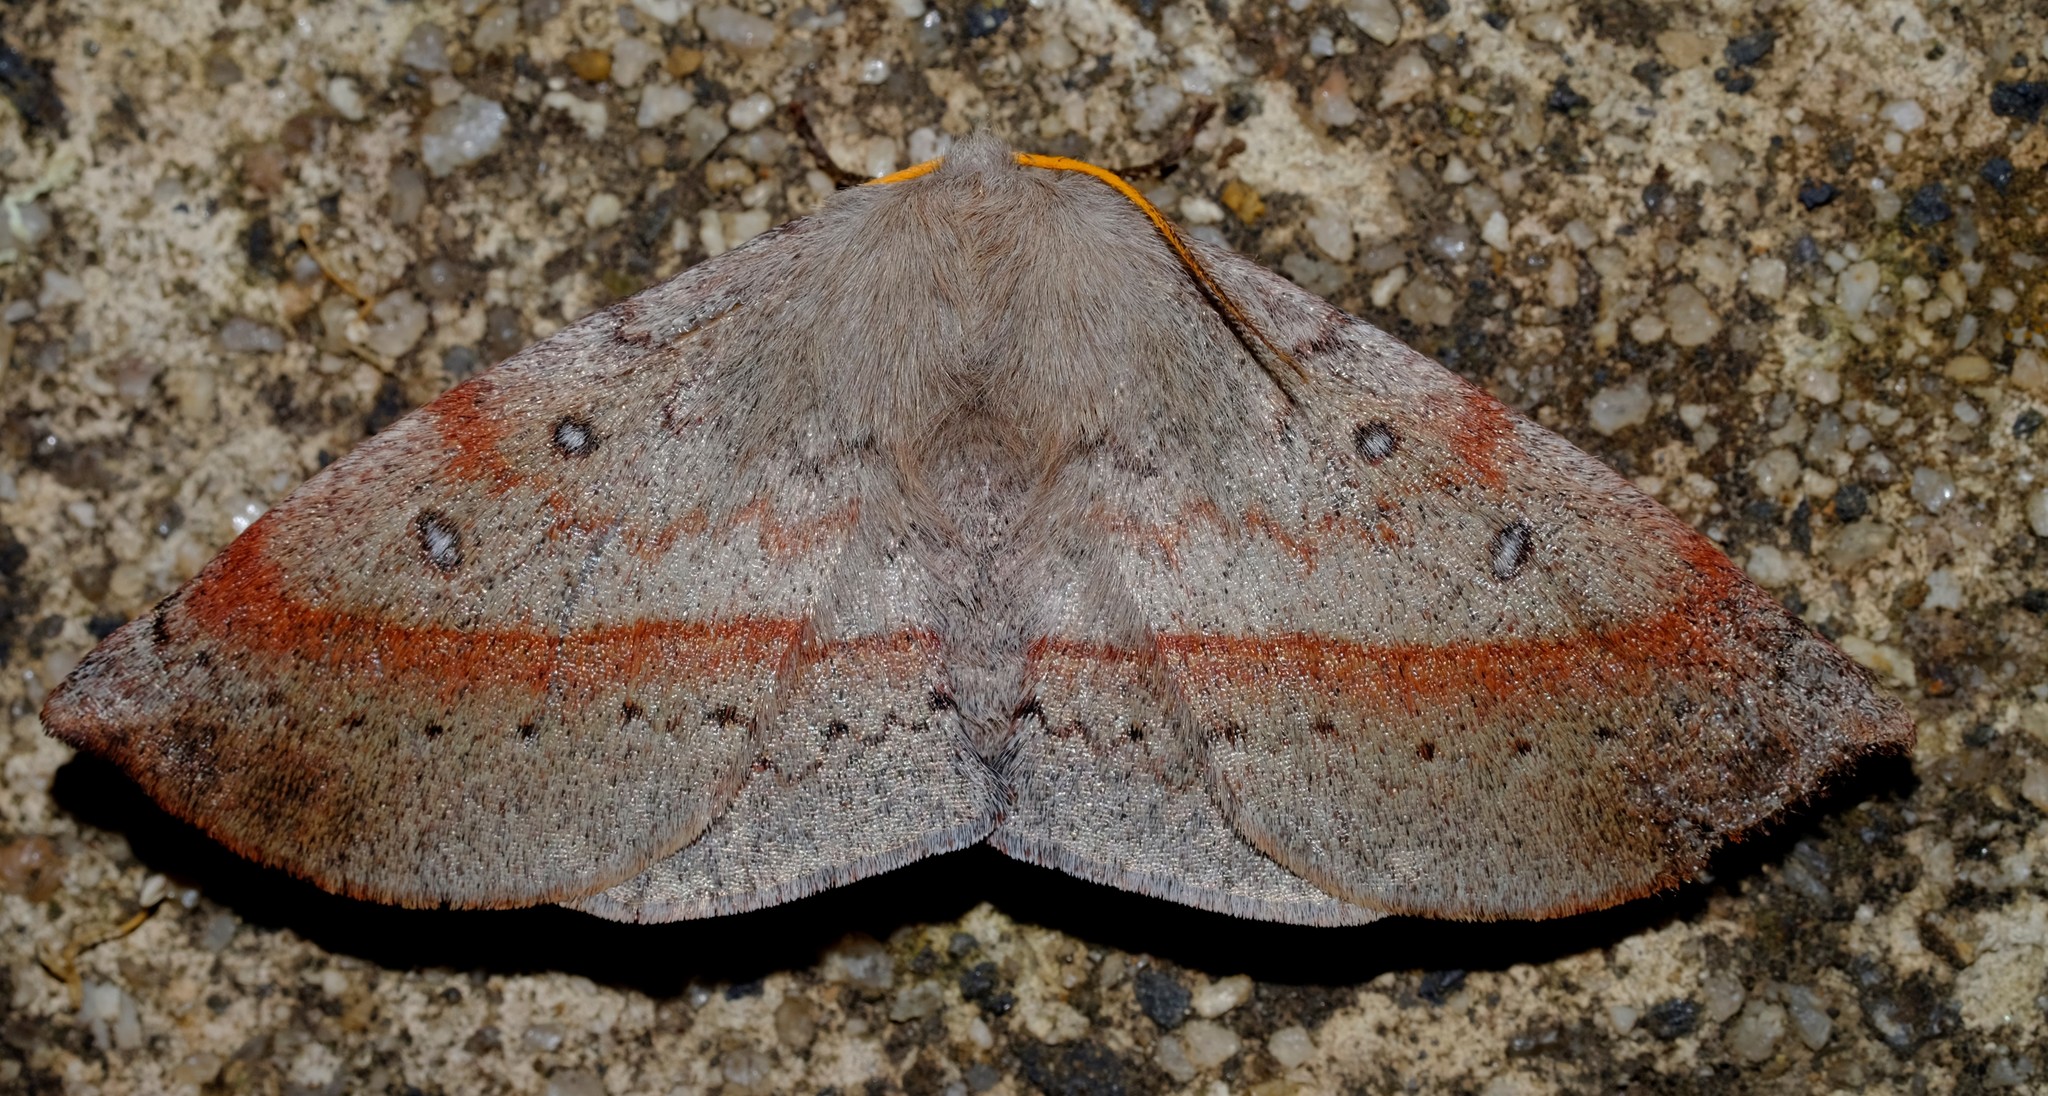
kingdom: Animalia
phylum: Arthropoda
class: Insecta
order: Lepidoptera
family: Anthelidae
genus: Anthela
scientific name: Anthela acuta
